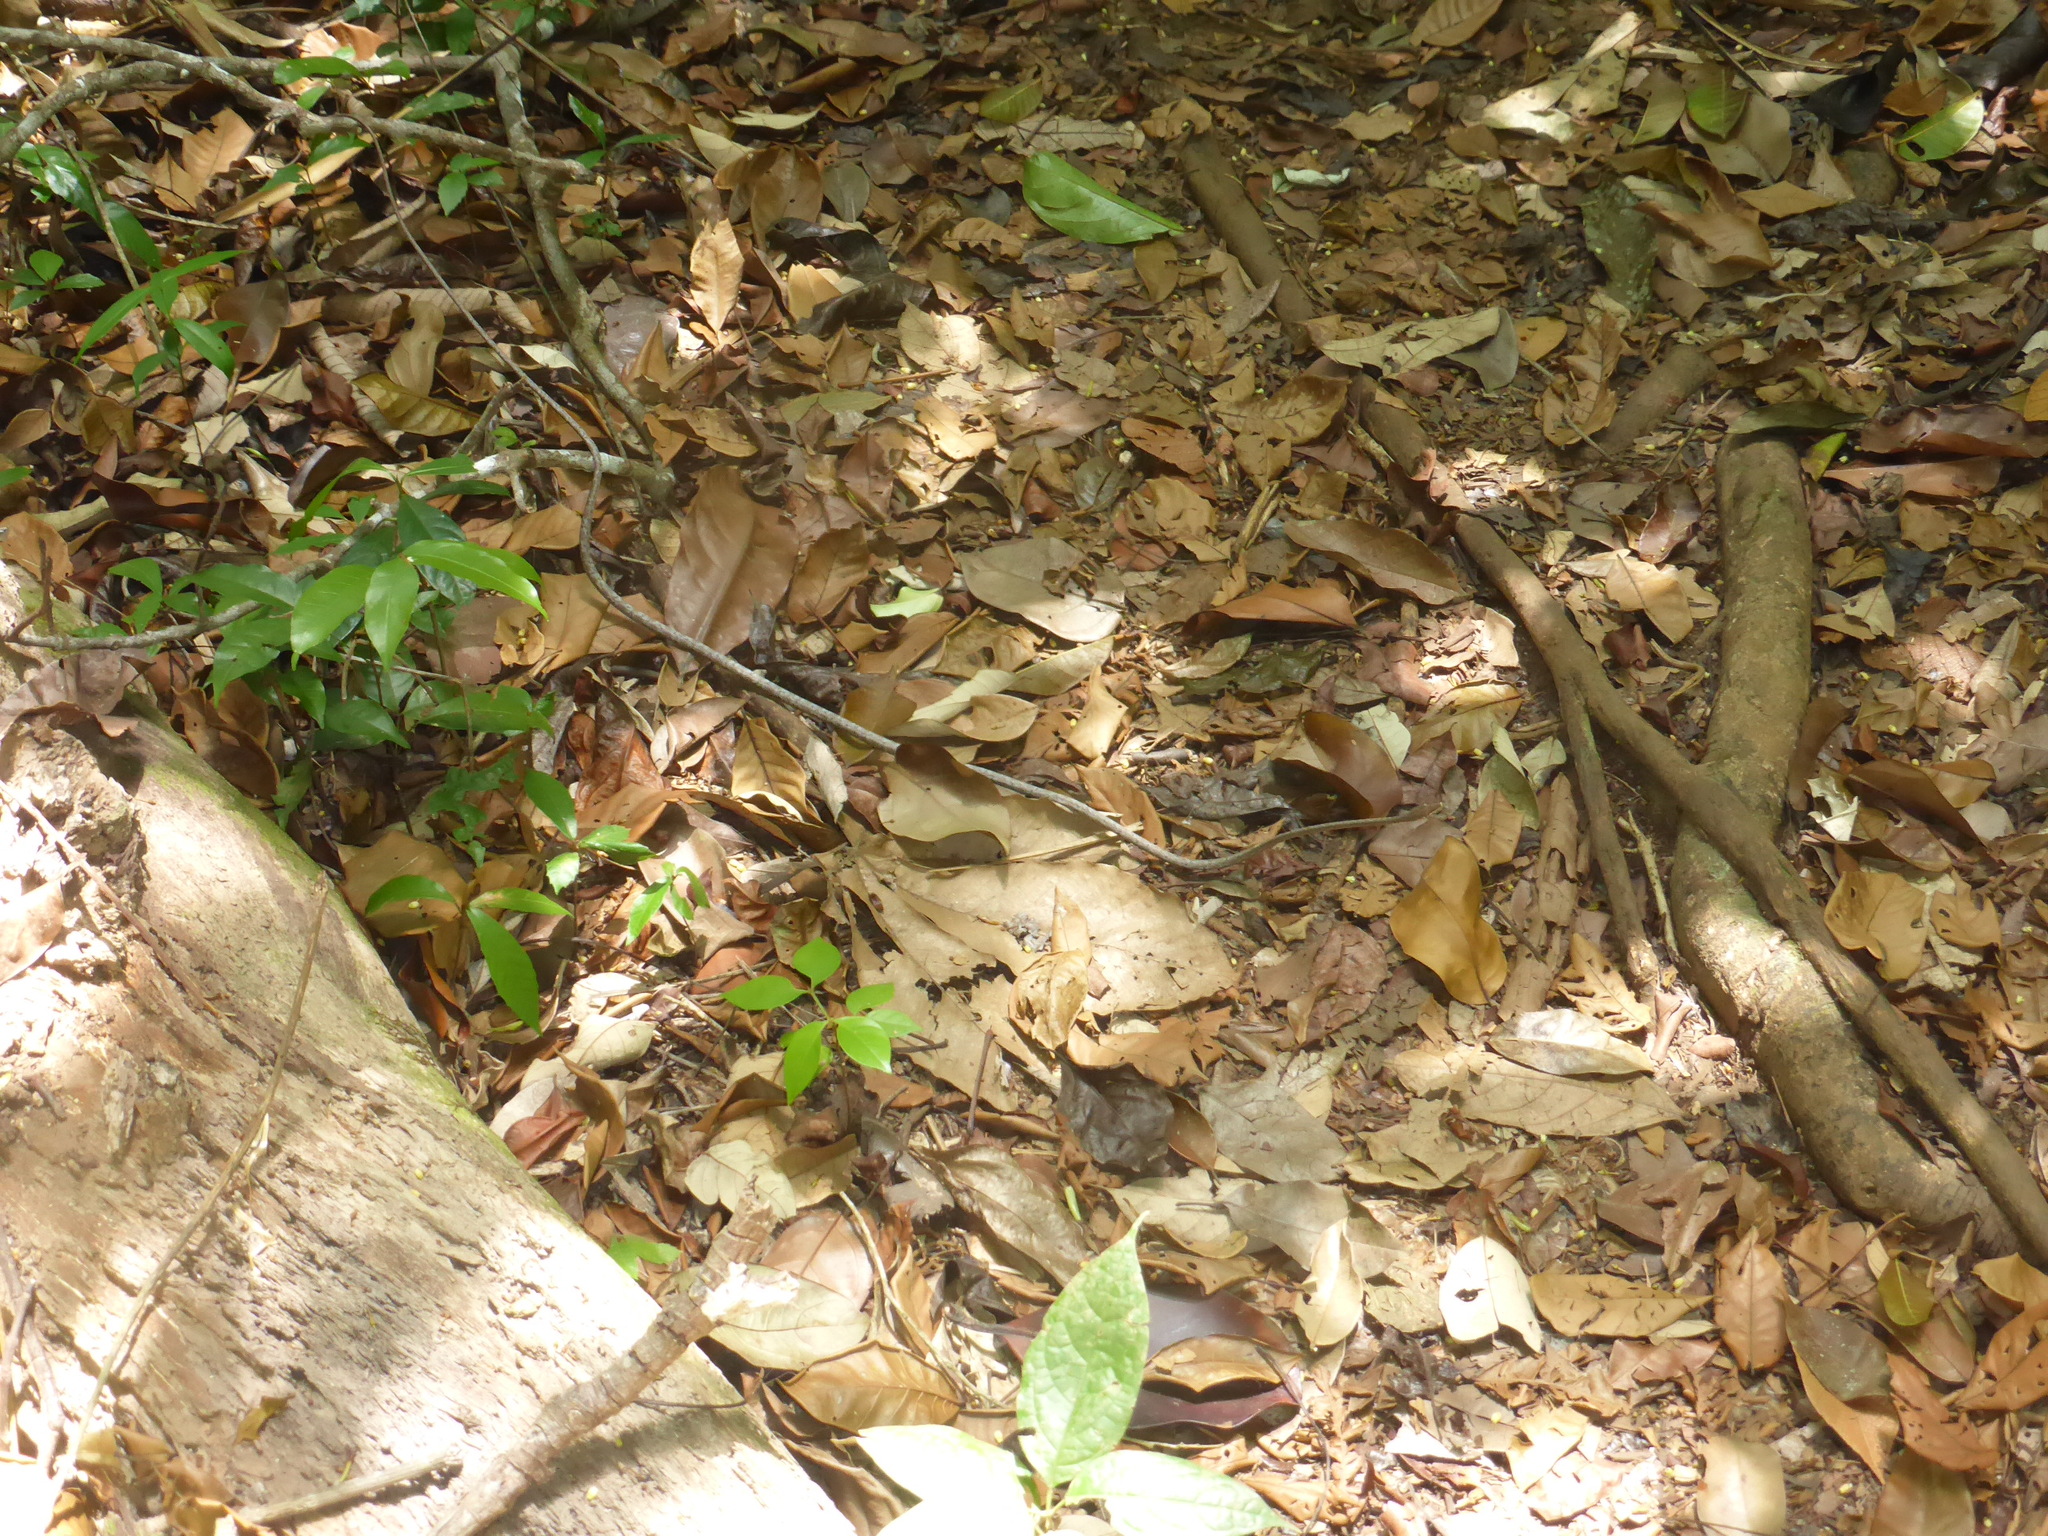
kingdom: Animalia
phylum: Chordata
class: Squamata
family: Colubridae
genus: Oxybelis
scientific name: Oxybelis rutherfordi
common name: Rutherford’s vine snake
